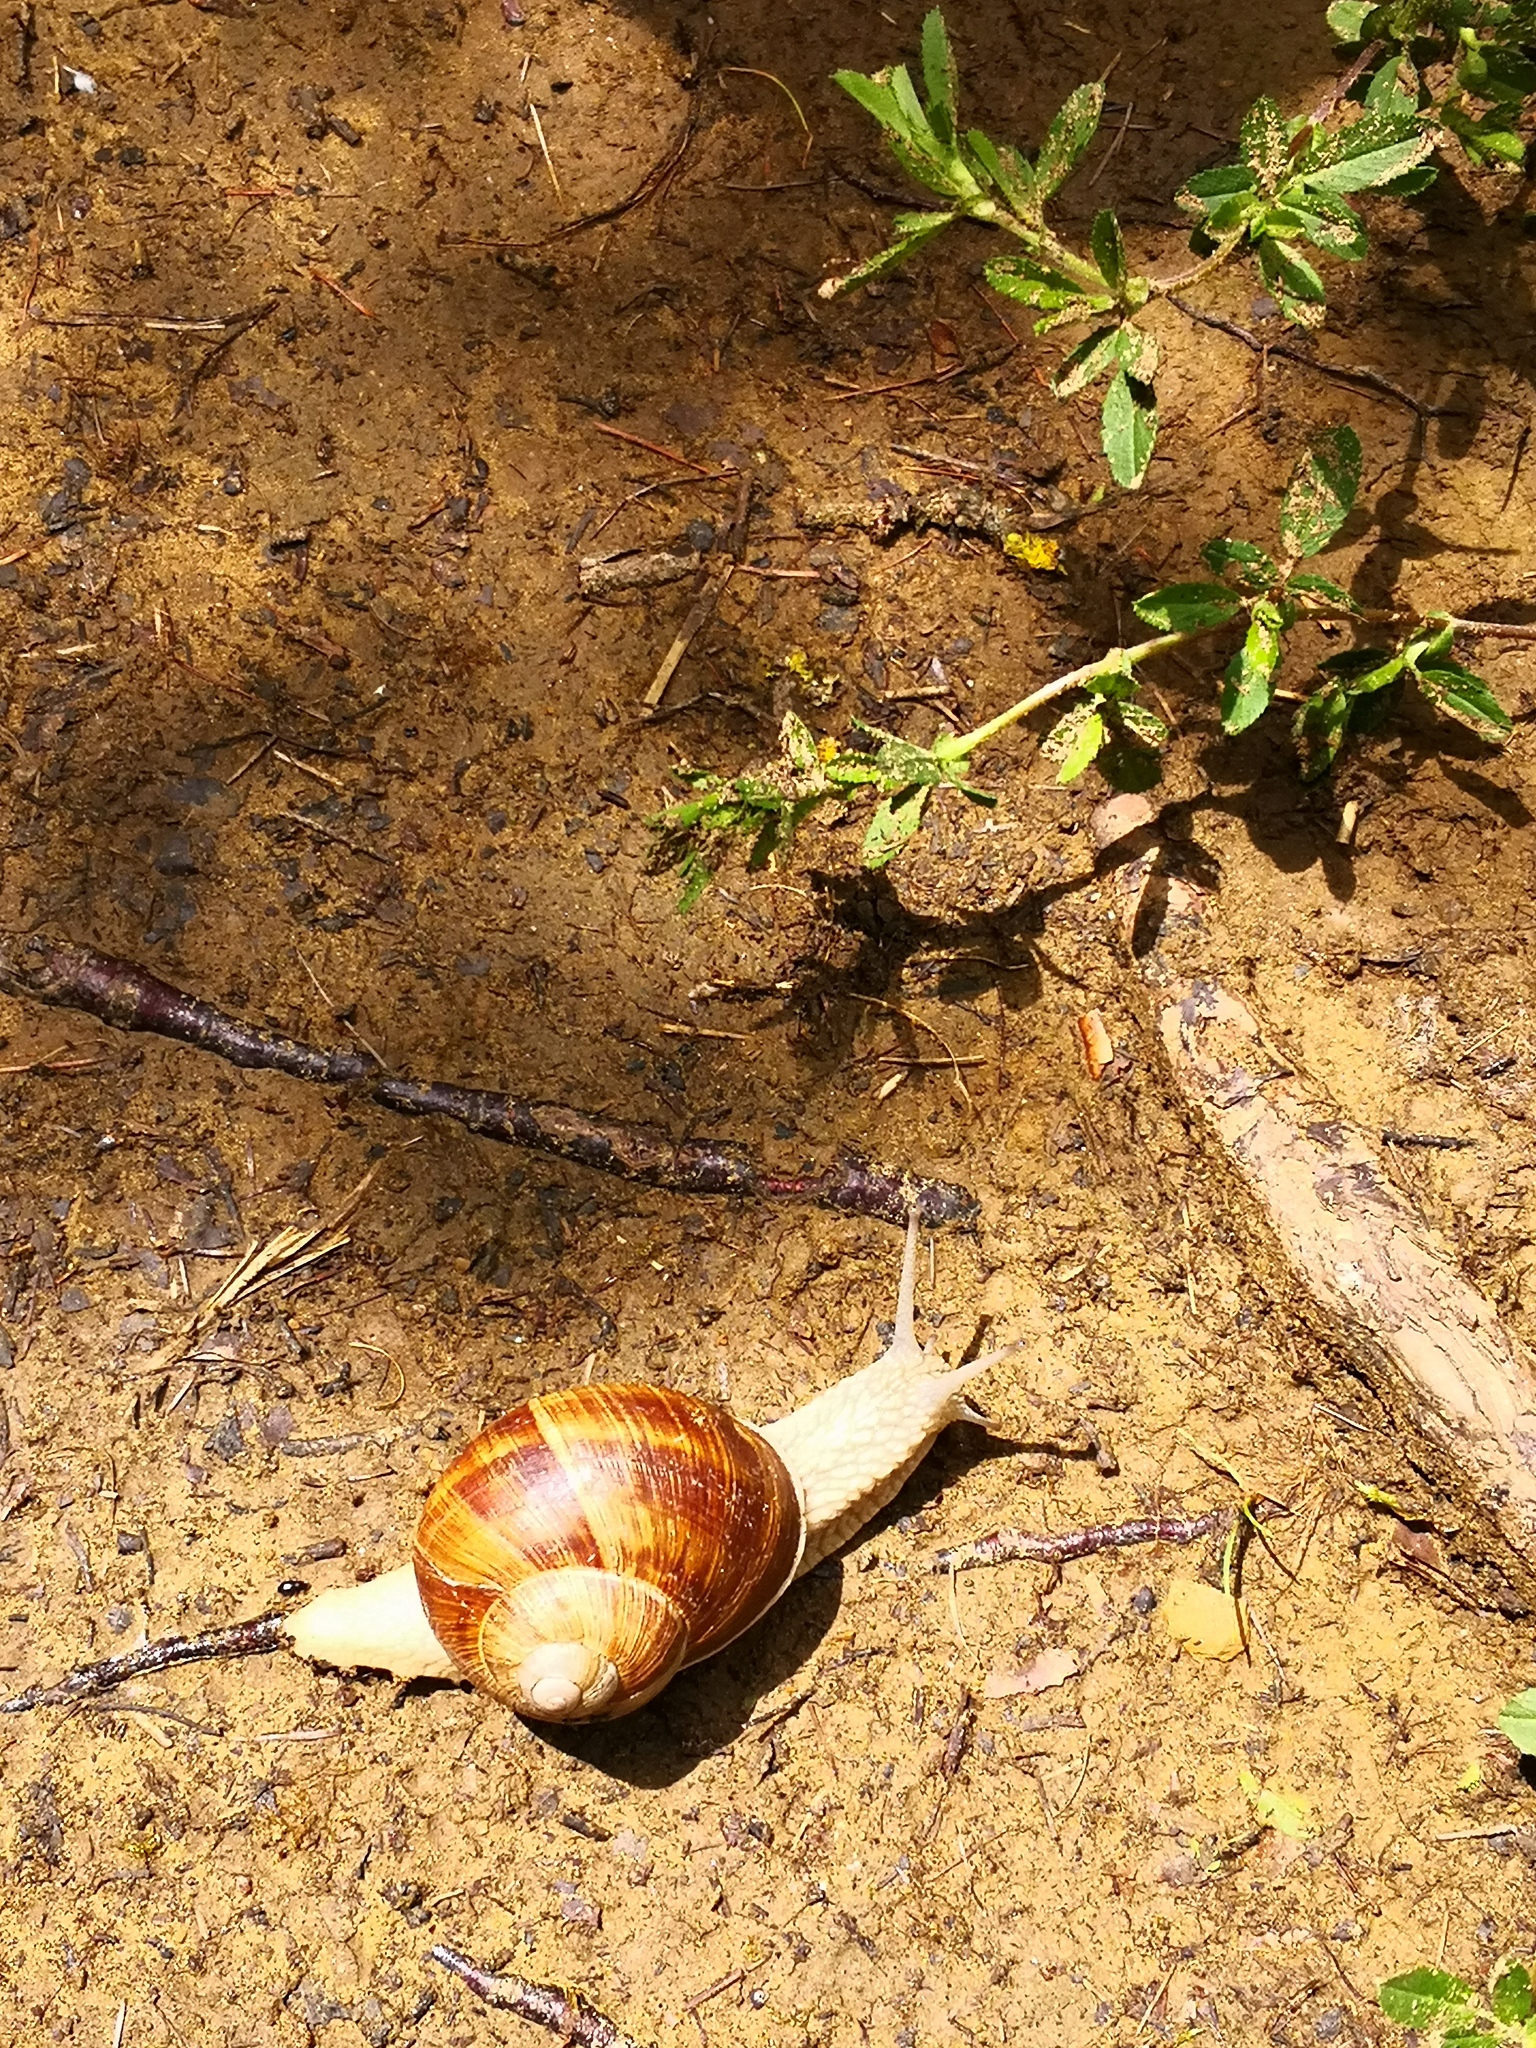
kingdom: Animalia
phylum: Mollusca
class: Gastropoda
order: Stylommatophora
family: Helicidae
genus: Helix
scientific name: Helix pomatia
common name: Roman snail
